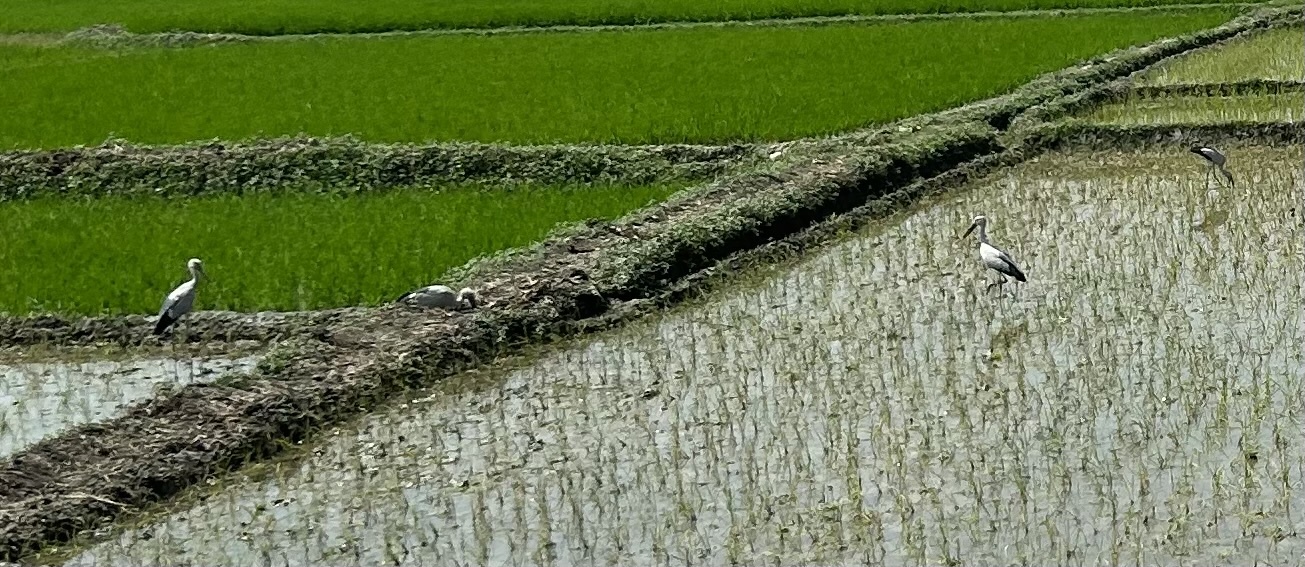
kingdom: Animalia
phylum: Chordata
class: Aves
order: Ciconiiformes
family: Ciconiidae
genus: Anastomus
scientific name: Anastomus oscitans
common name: Asian openbill
